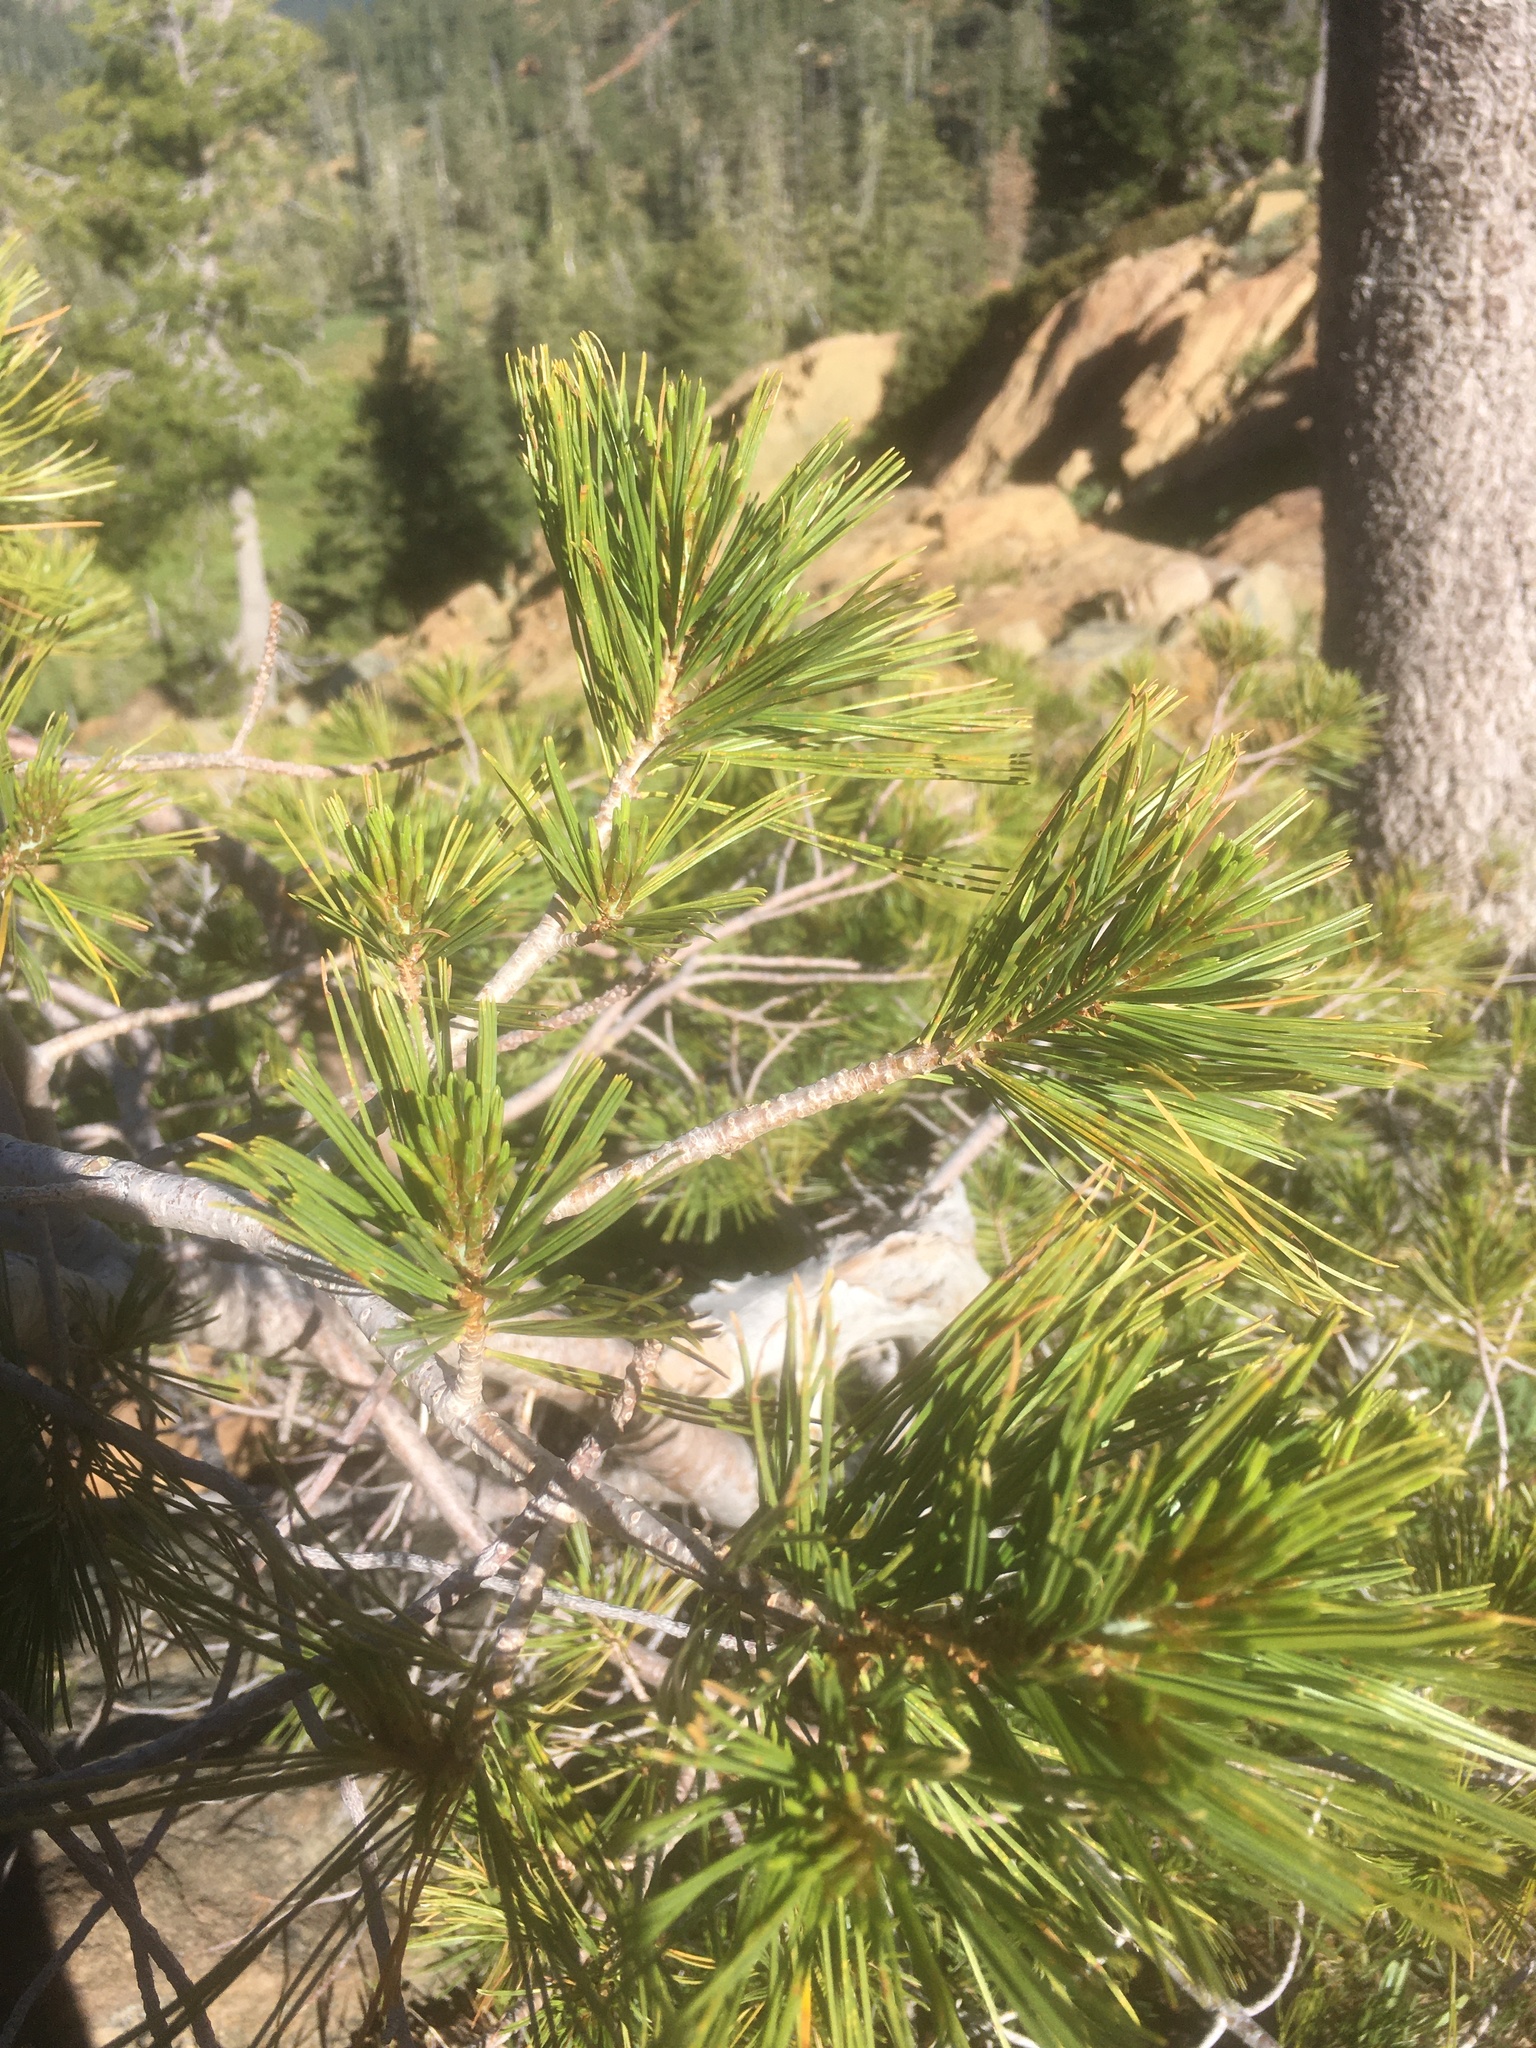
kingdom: Plantae
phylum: Tracheophyta
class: Pinopsida
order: Pinales
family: Pinaceae
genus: Pinus
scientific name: Pinus monticola
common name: Western white pine
